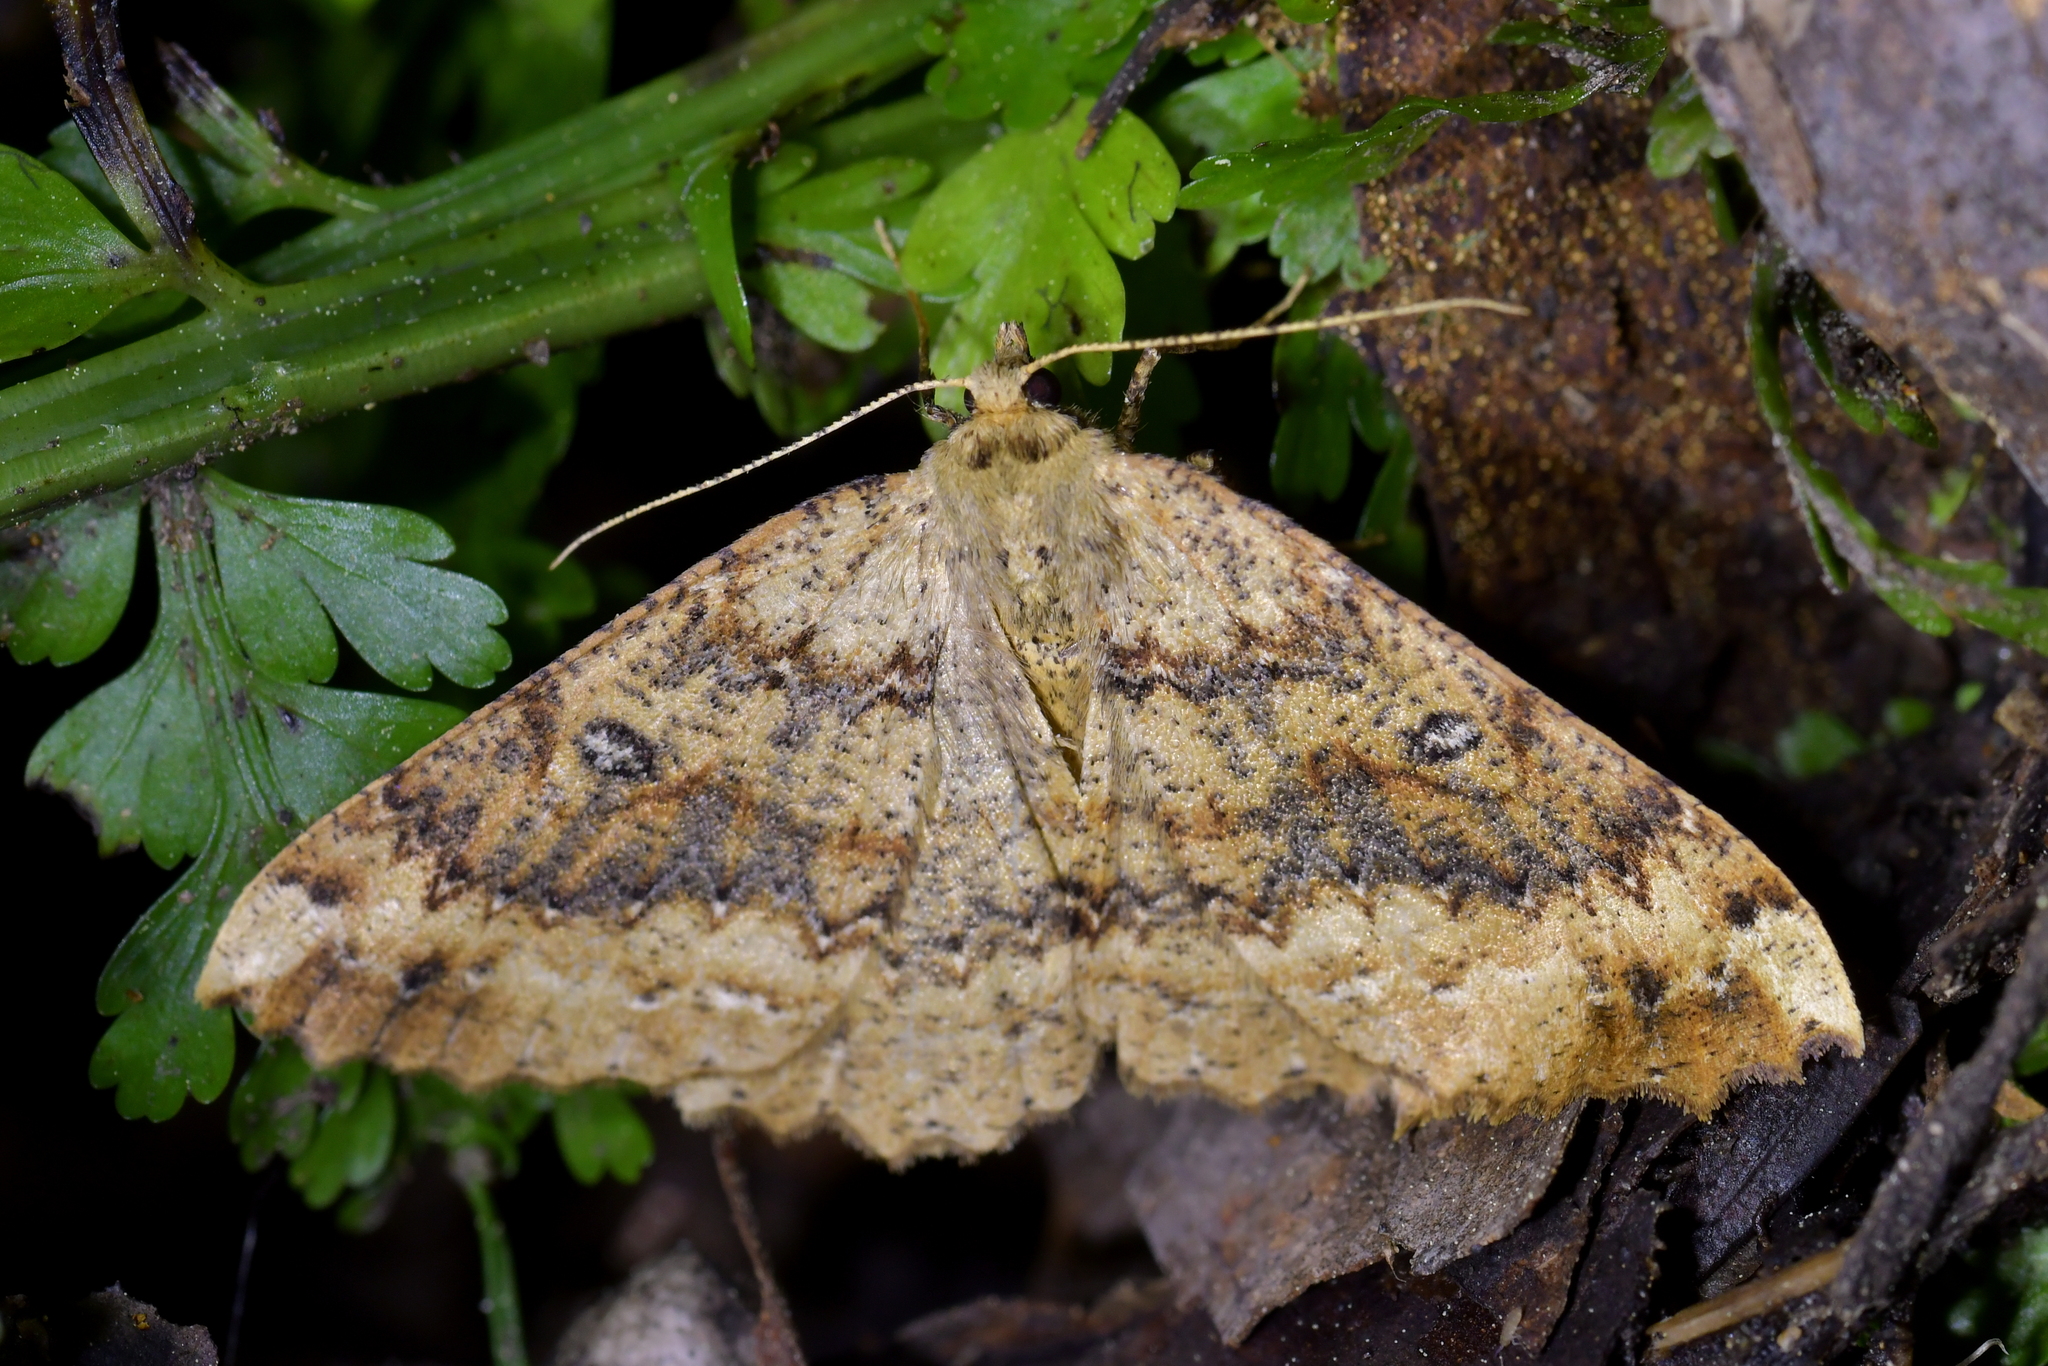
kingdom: Animalia
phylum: Arthropoda
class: Insecta
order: Lepidoptera
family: Geometridae
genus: Cleora
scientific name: Cleora scriptaria
